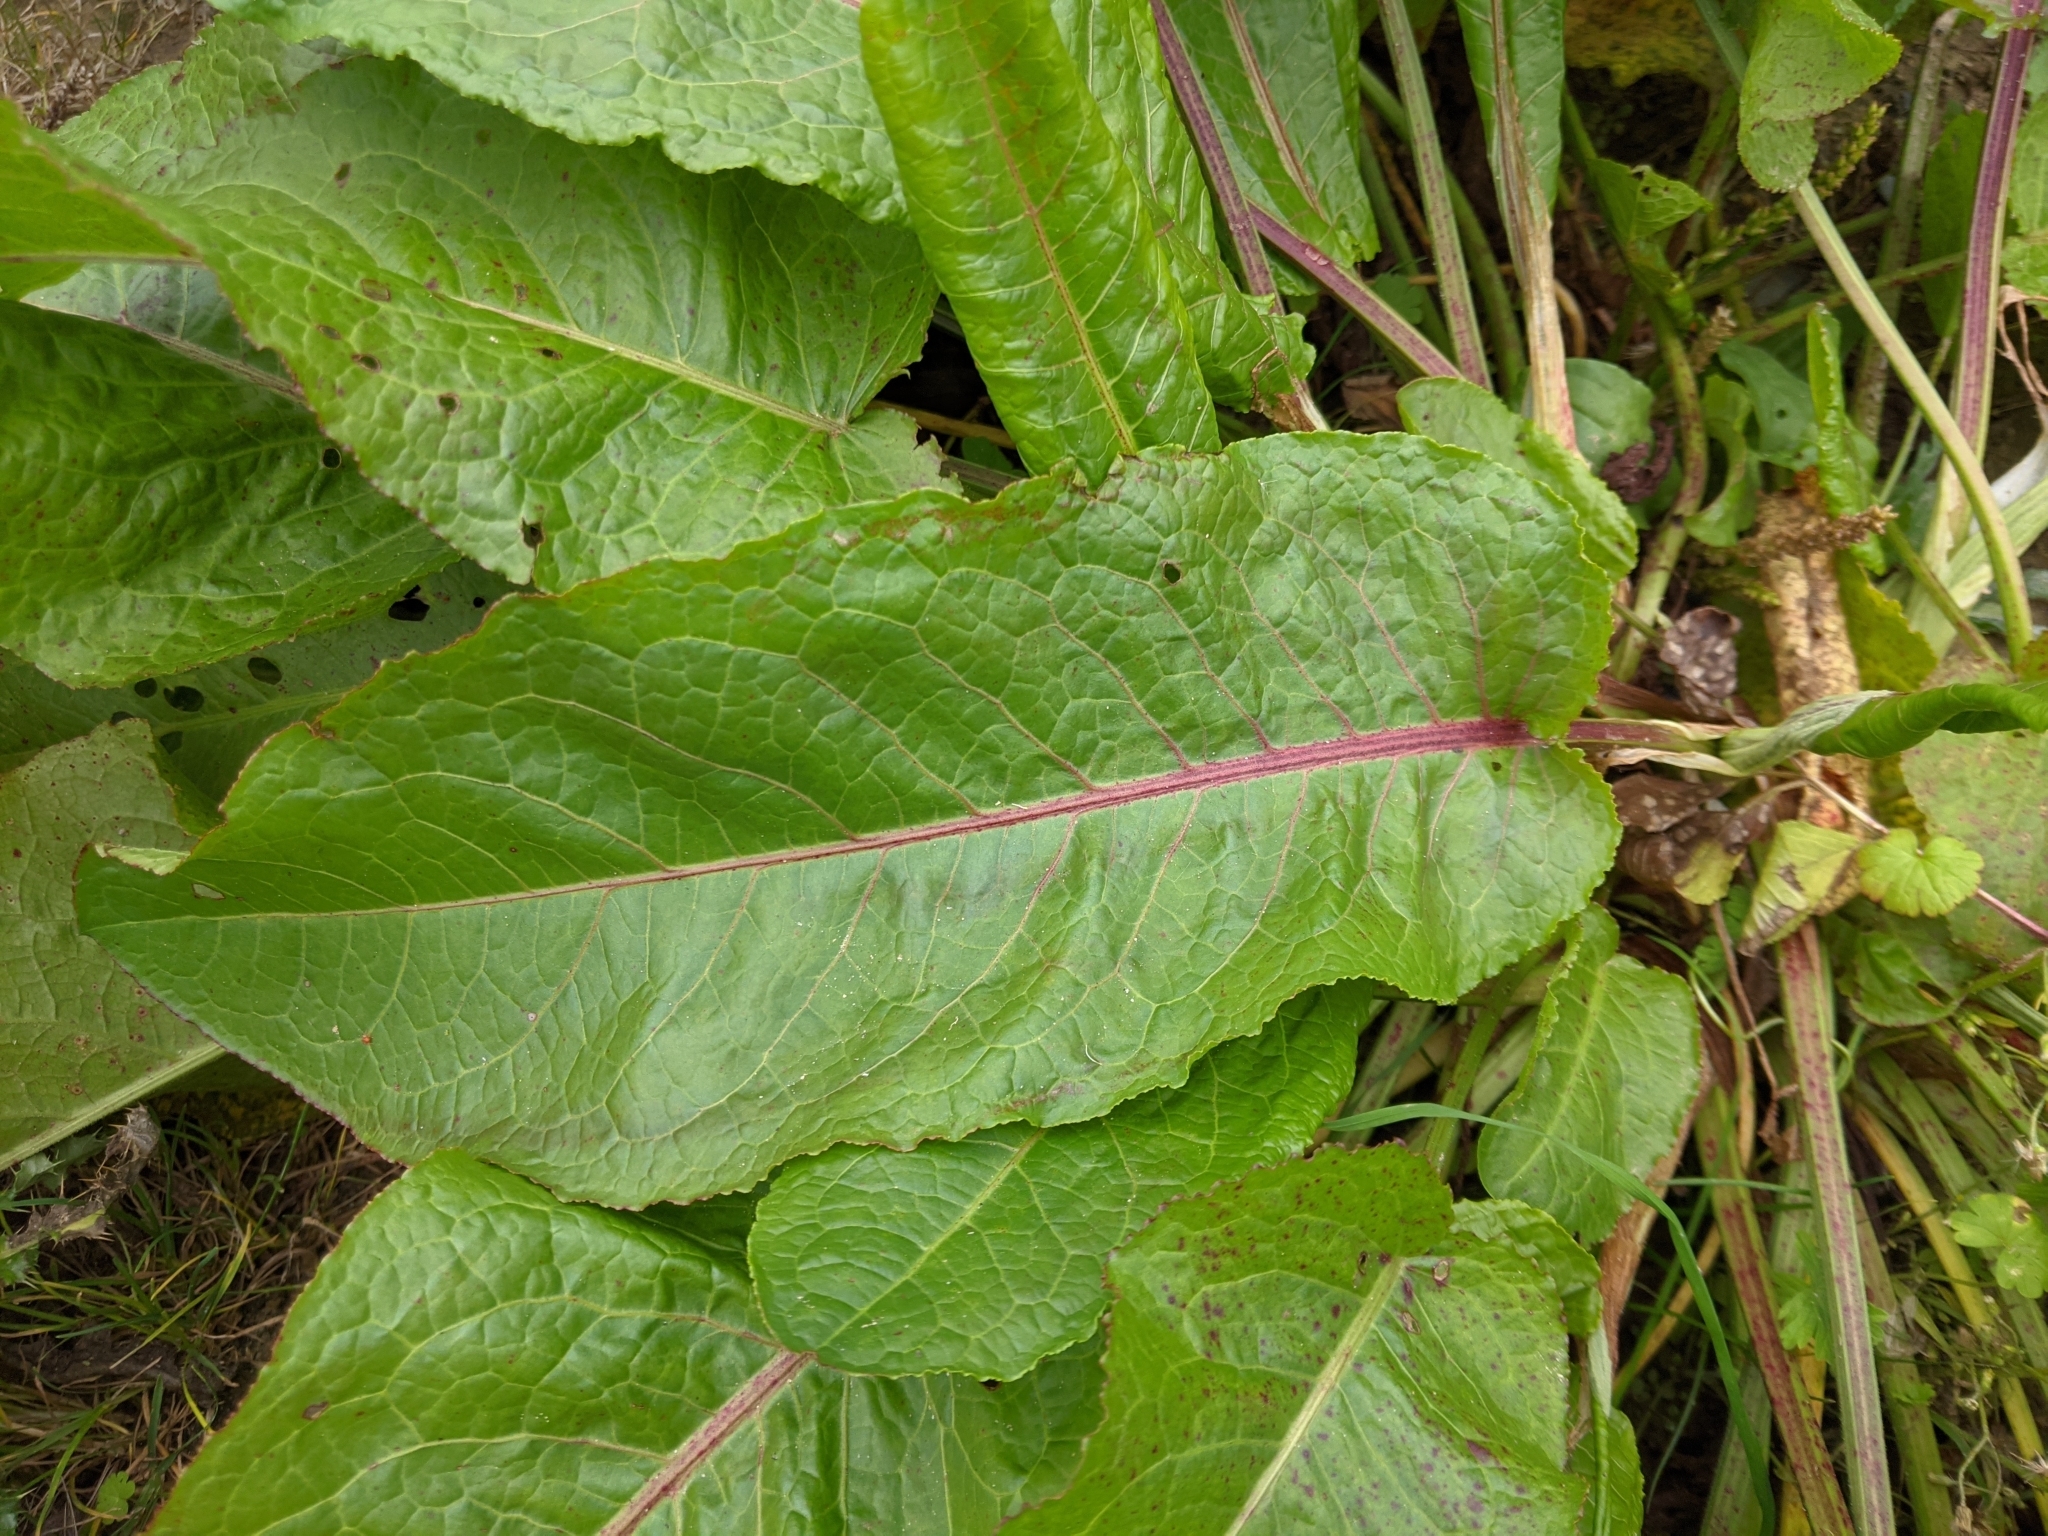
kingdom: Plantae
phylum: Tracheophyta
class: Magnoliopsida
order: Caryophyllales
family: Polygonaceae
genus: Rumex
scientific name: Rumex obtusifolius
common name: Bitter dock
